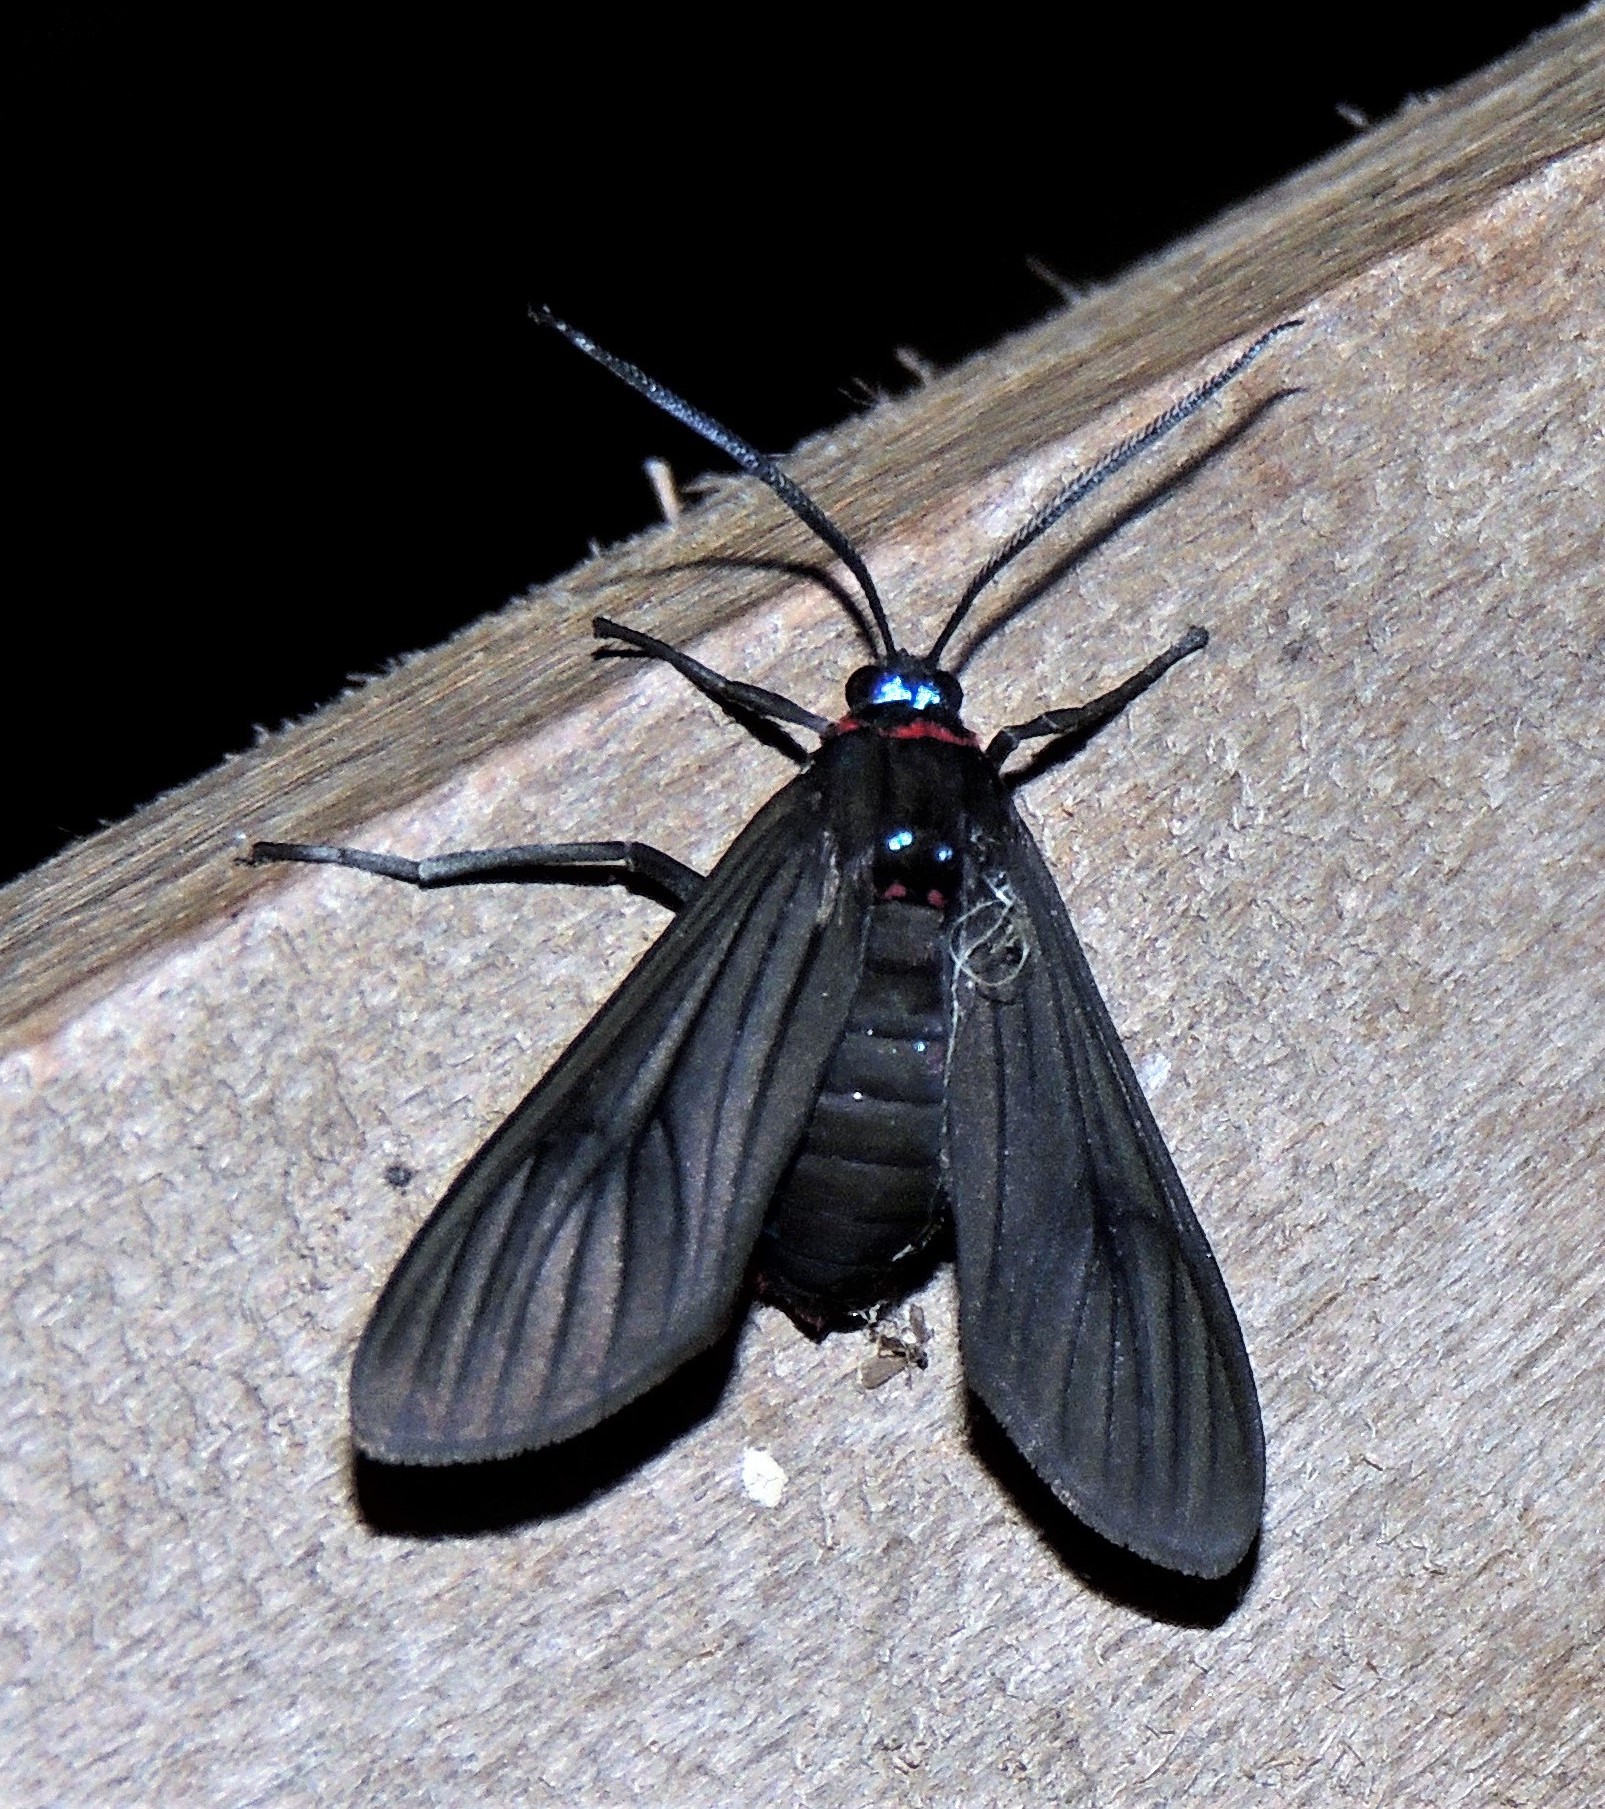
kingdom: Animalia
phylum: Arthropoda
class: Insecta
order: Lepidoptera
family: Erebidae
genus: Saurita
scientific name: Saurita cassandra
